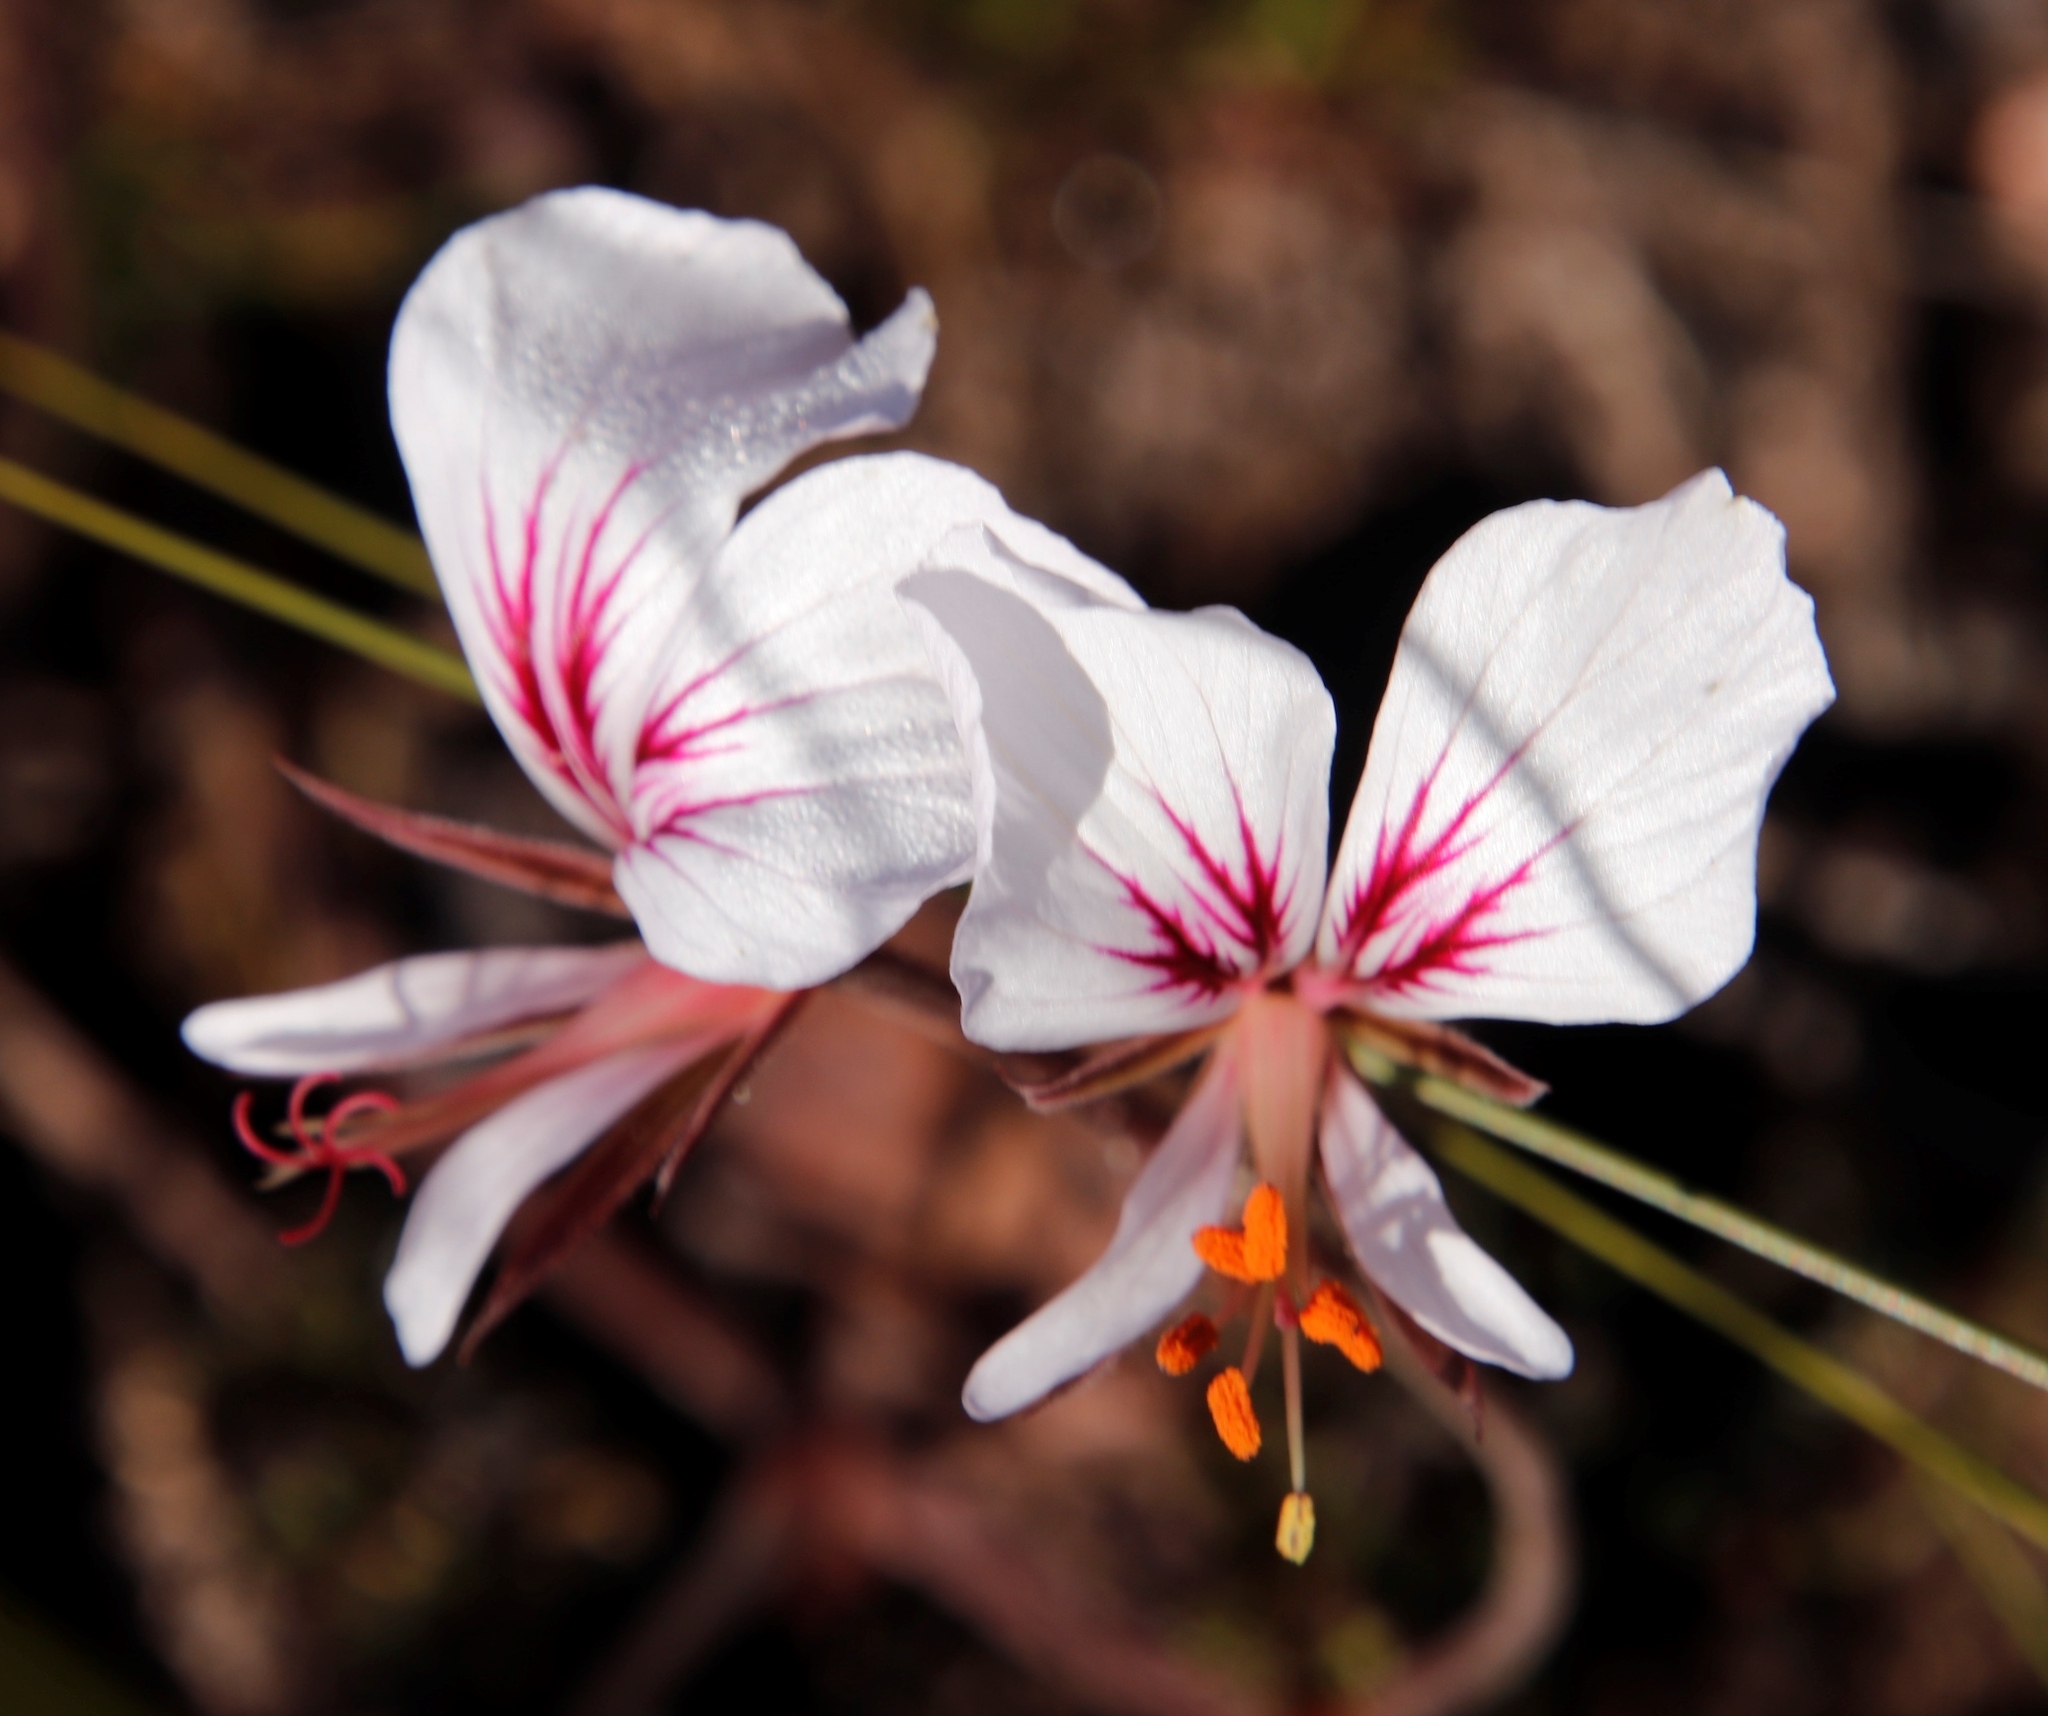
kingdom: Plantae
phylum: Tracheophyta
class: Magnoliopsida
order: Geraniales
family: Geraniaceae
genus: Pelargonium
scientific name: Pelargonium myrrhifolium
